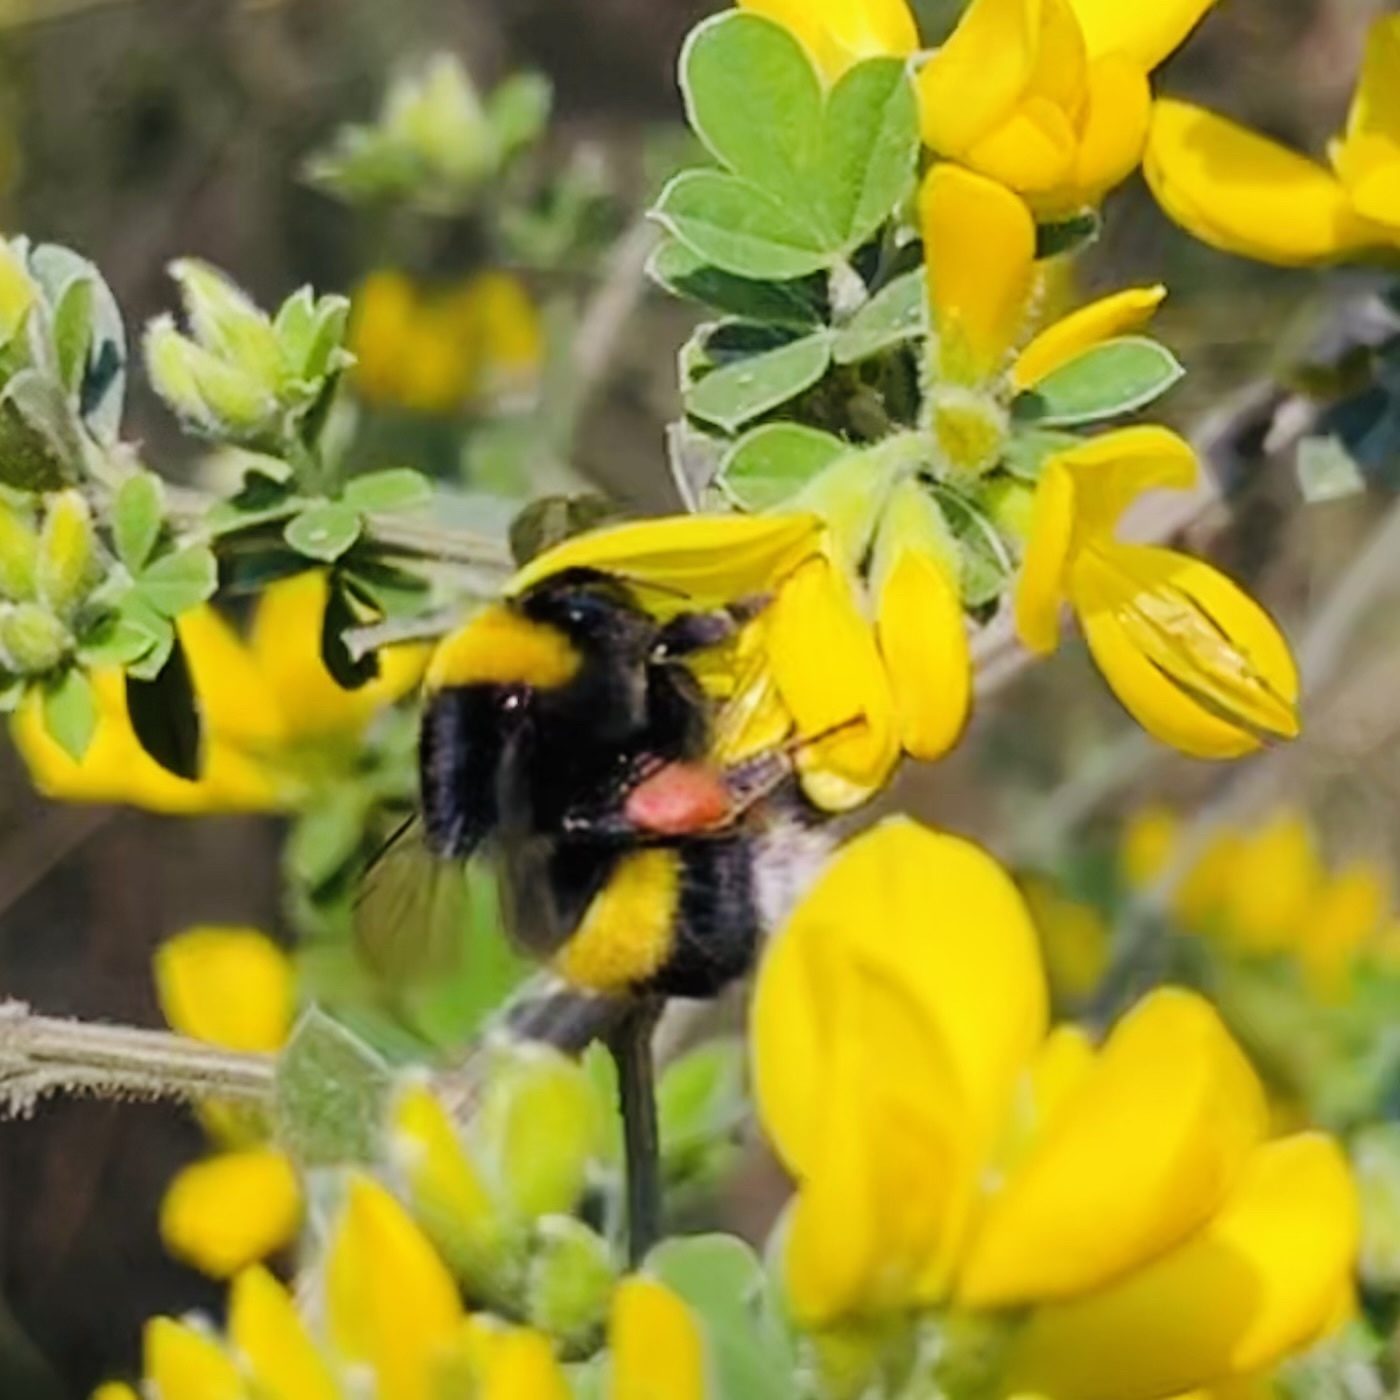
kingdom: Animalia
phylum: Arthropoda
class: Insecta
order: Hymenoptera
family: Apidae
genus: Bombus
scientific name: Bombus terrestris
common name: Buff-tailed bumblebee
